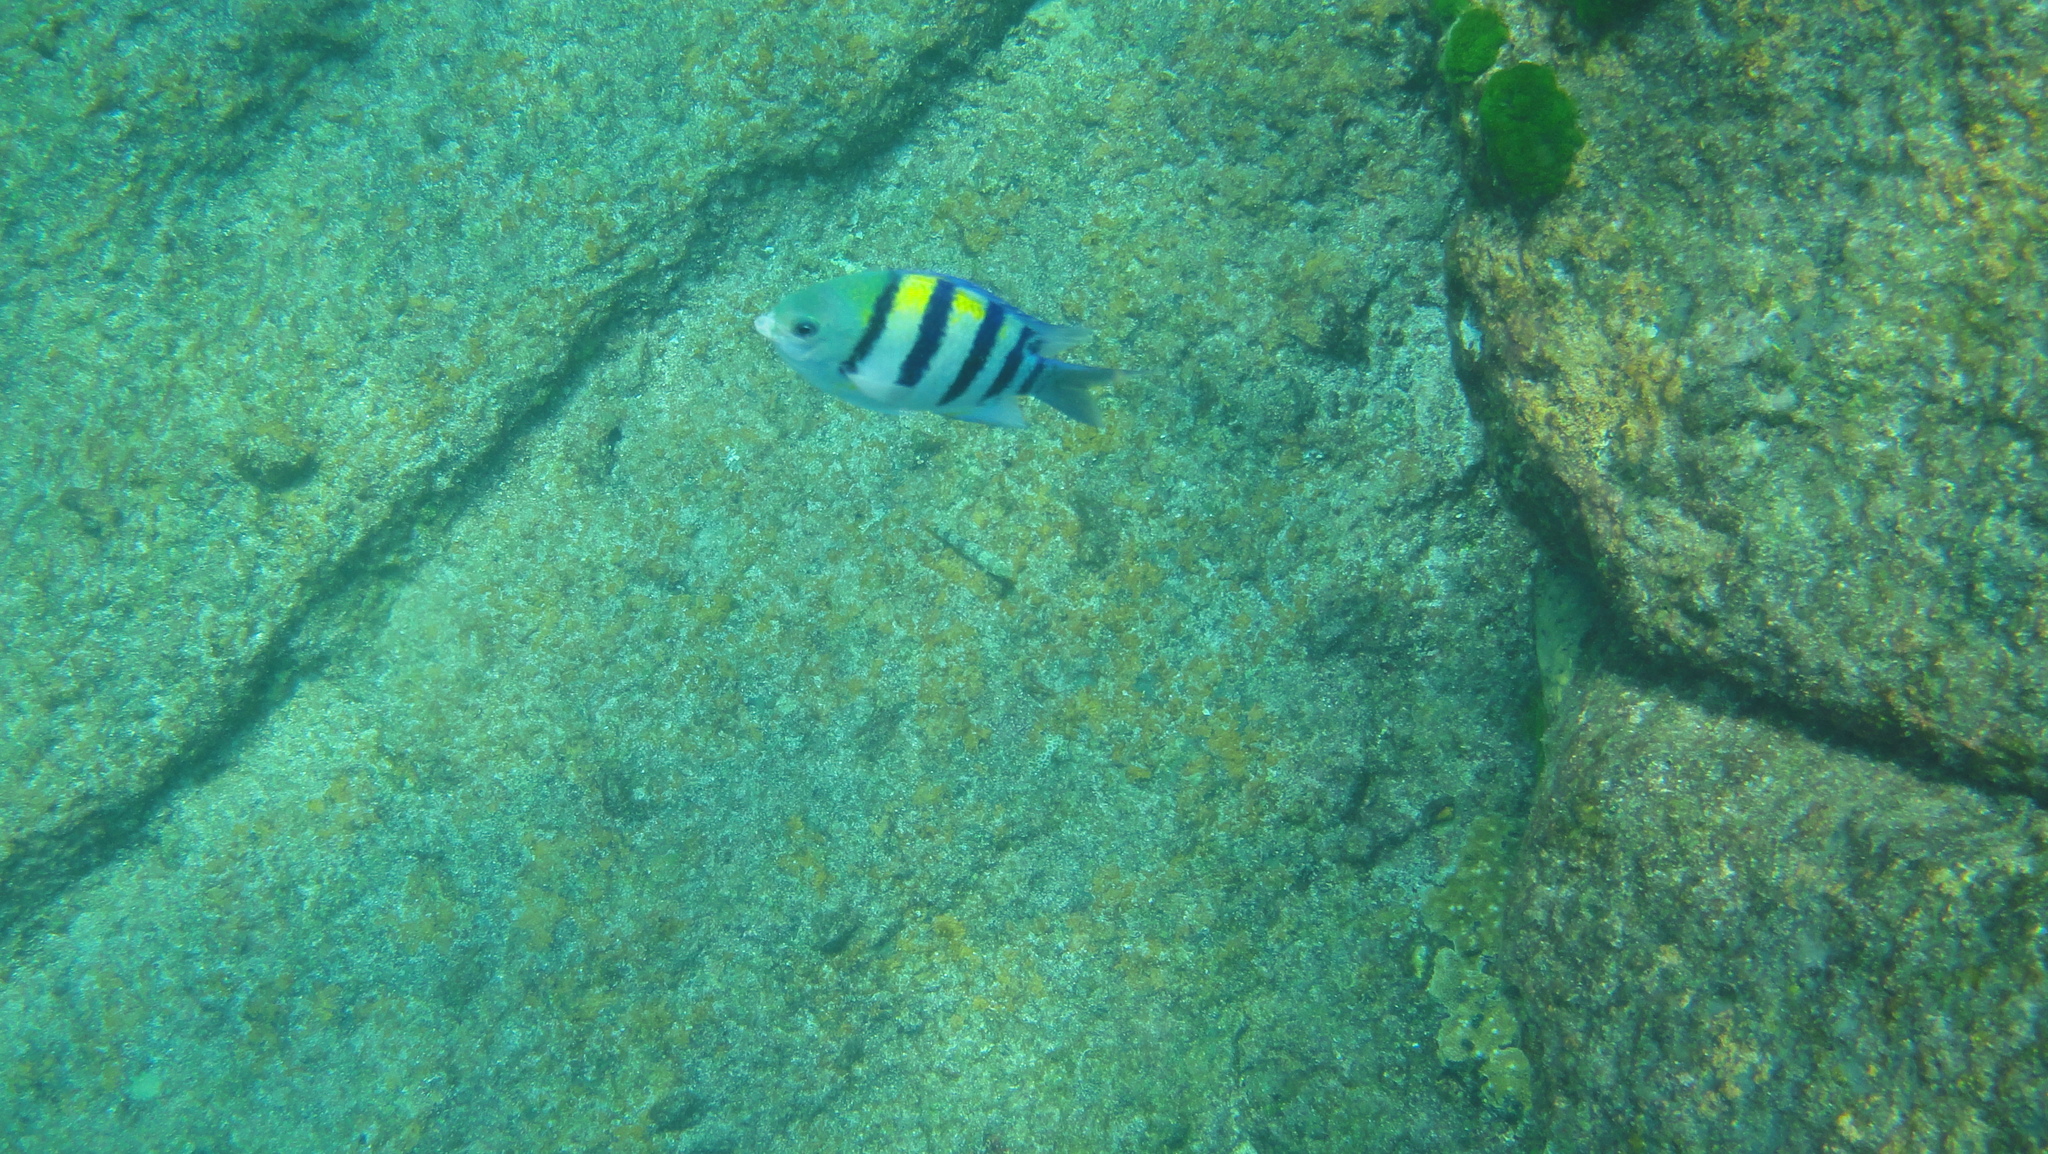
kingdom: Animalia
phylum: Chordata
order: Perciformes
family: Pomacentridae
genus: Abudefduf
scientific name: Abudefduf vaigiensis
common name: Indo-pacific sergeant
